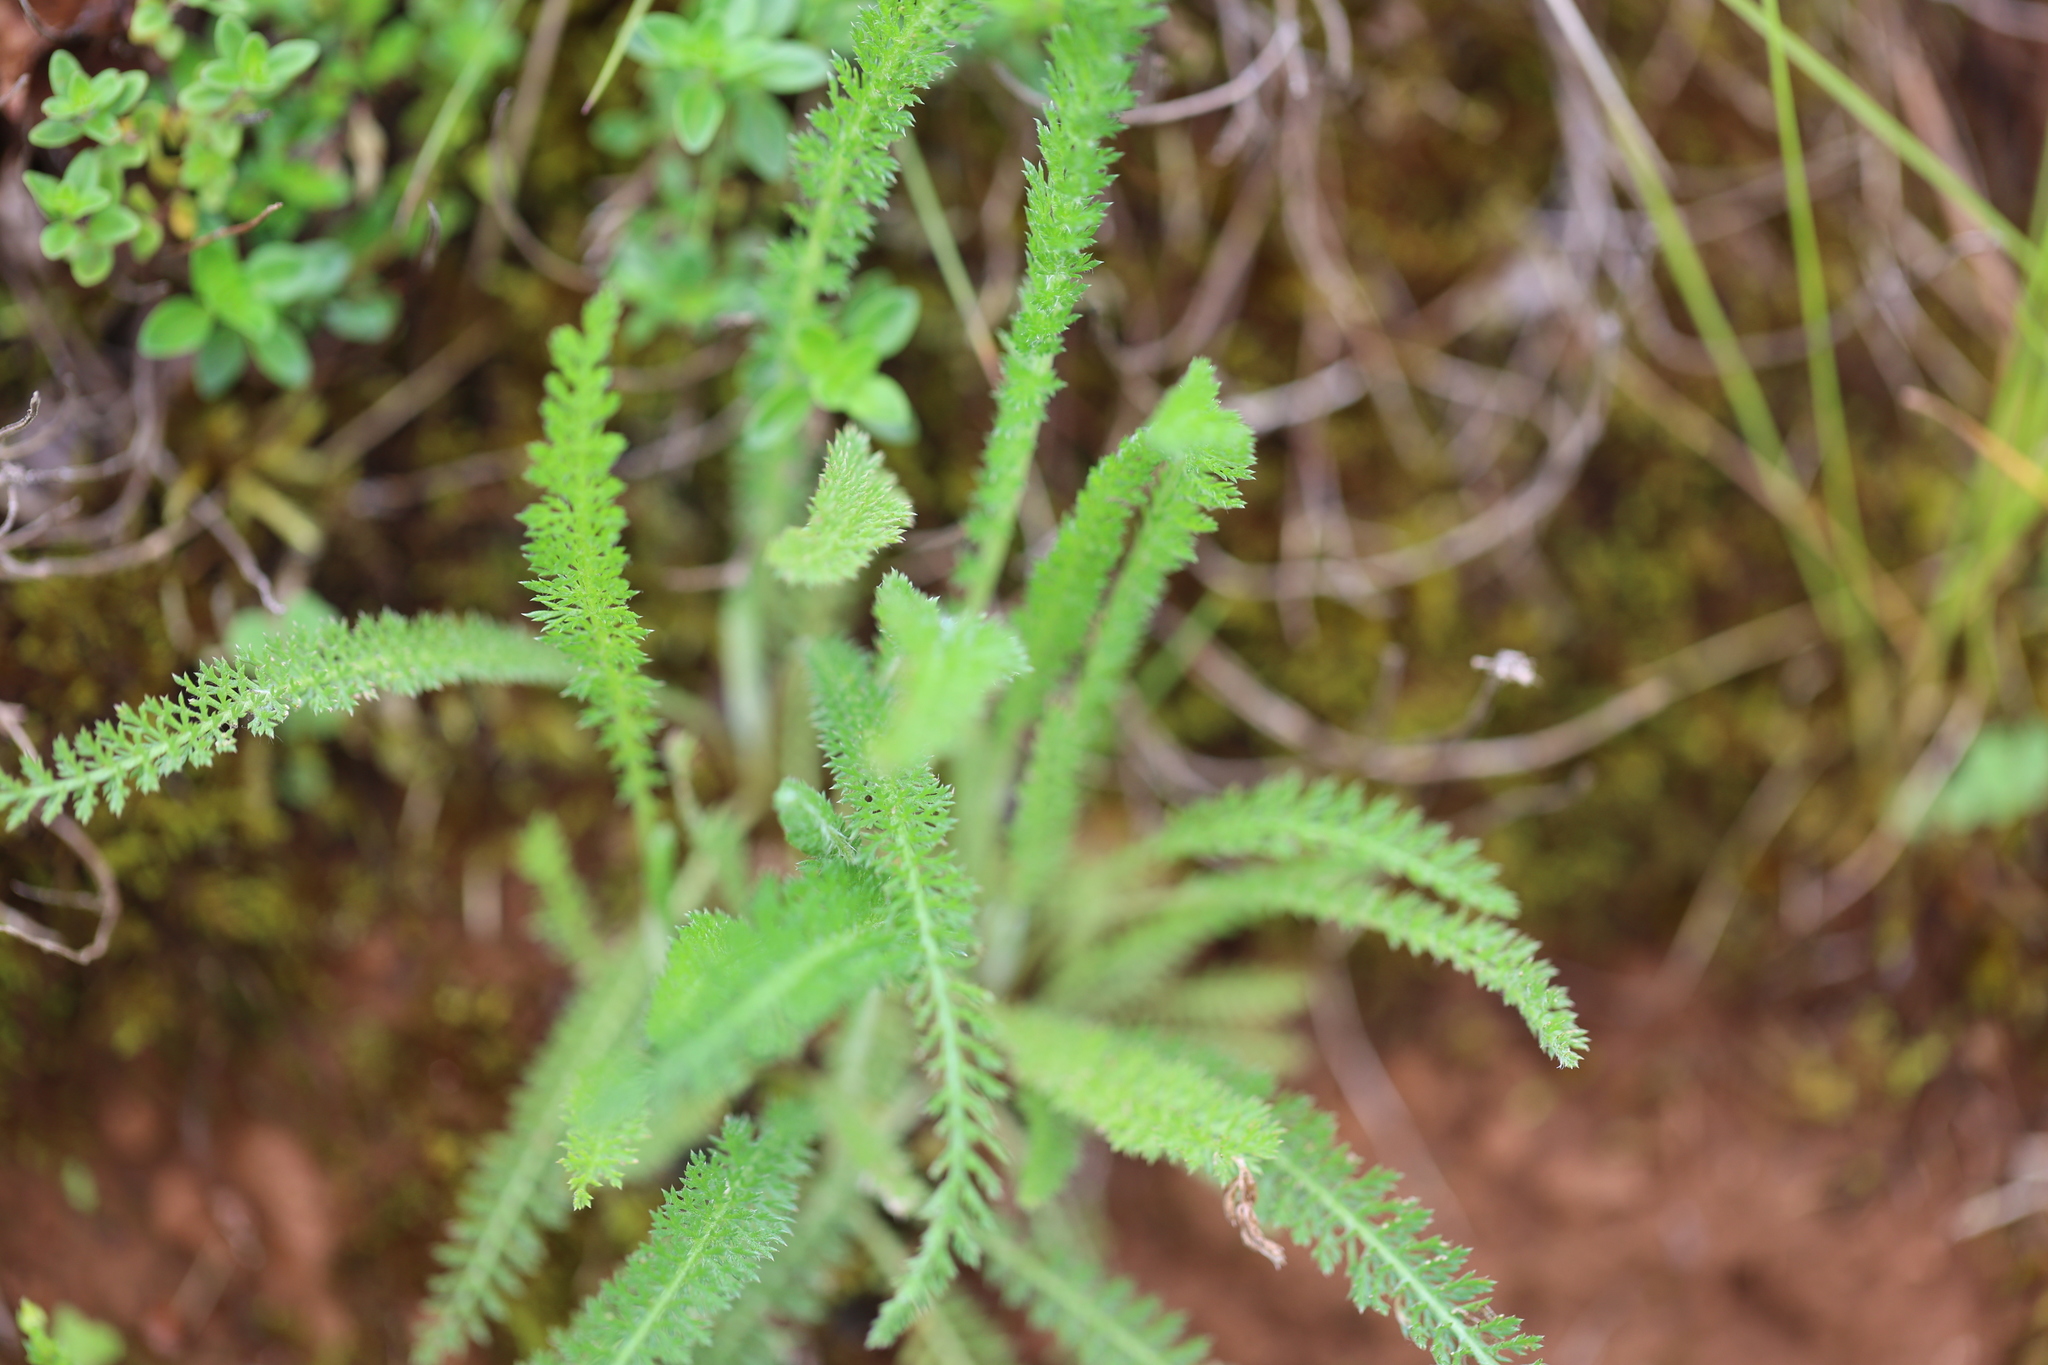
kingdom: Plantae
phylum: Tracheophyta
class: Magnoliopsida
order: Asterales
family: Asteraceae
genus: Achillea
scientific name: Achillea millefolium
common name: Yarrow
